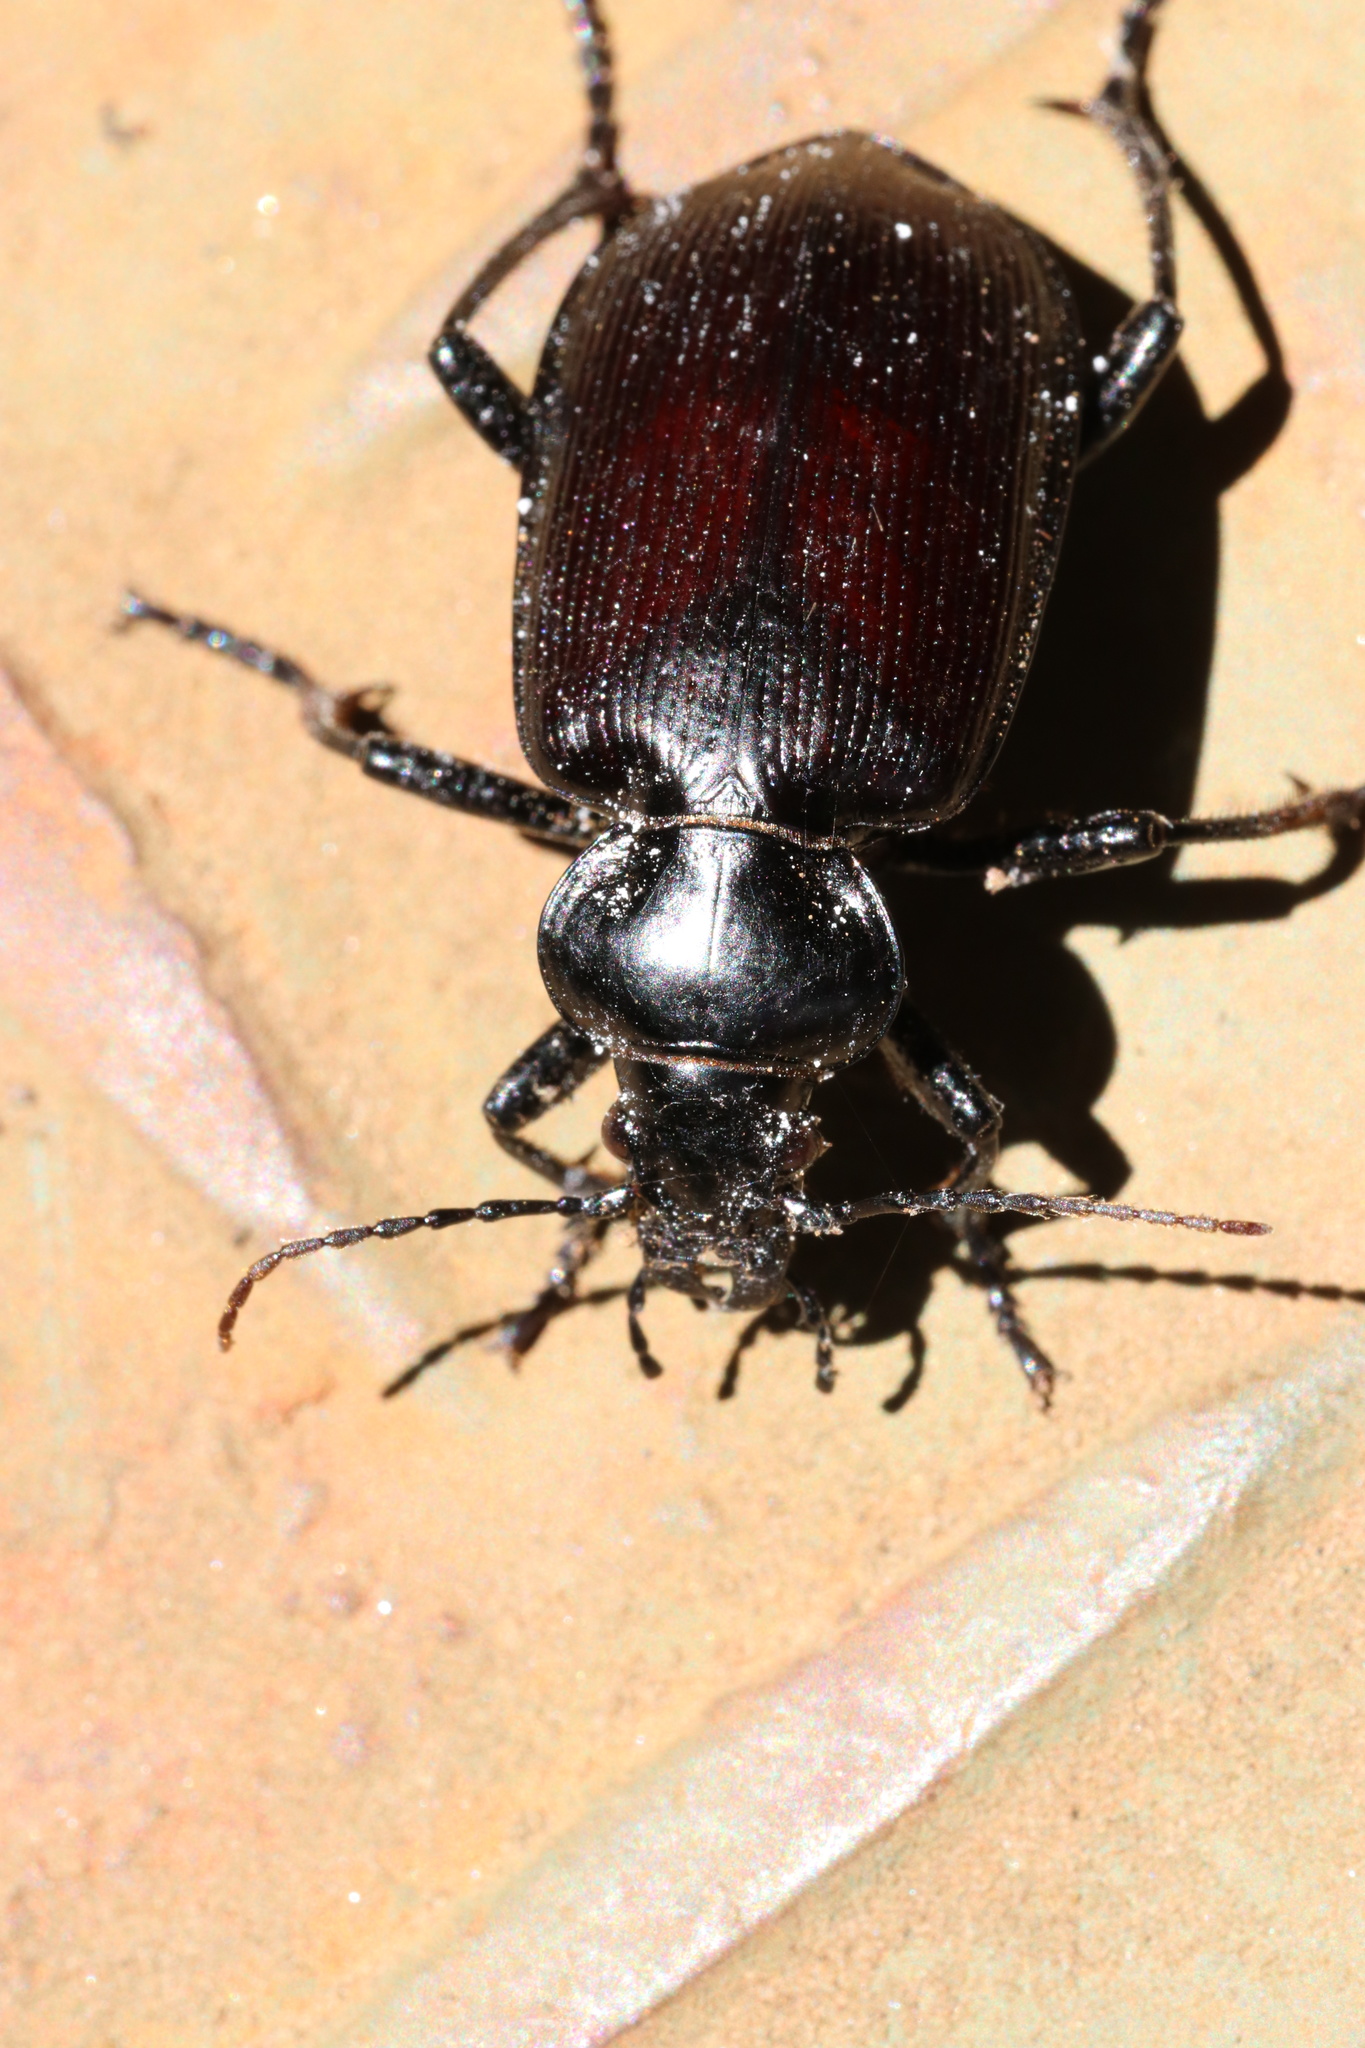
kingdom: Animalia
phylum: Arthropoda
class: Insecta
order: Coleoptera
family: Carabidae
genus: Calosoma
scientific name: Calosoma vagans
